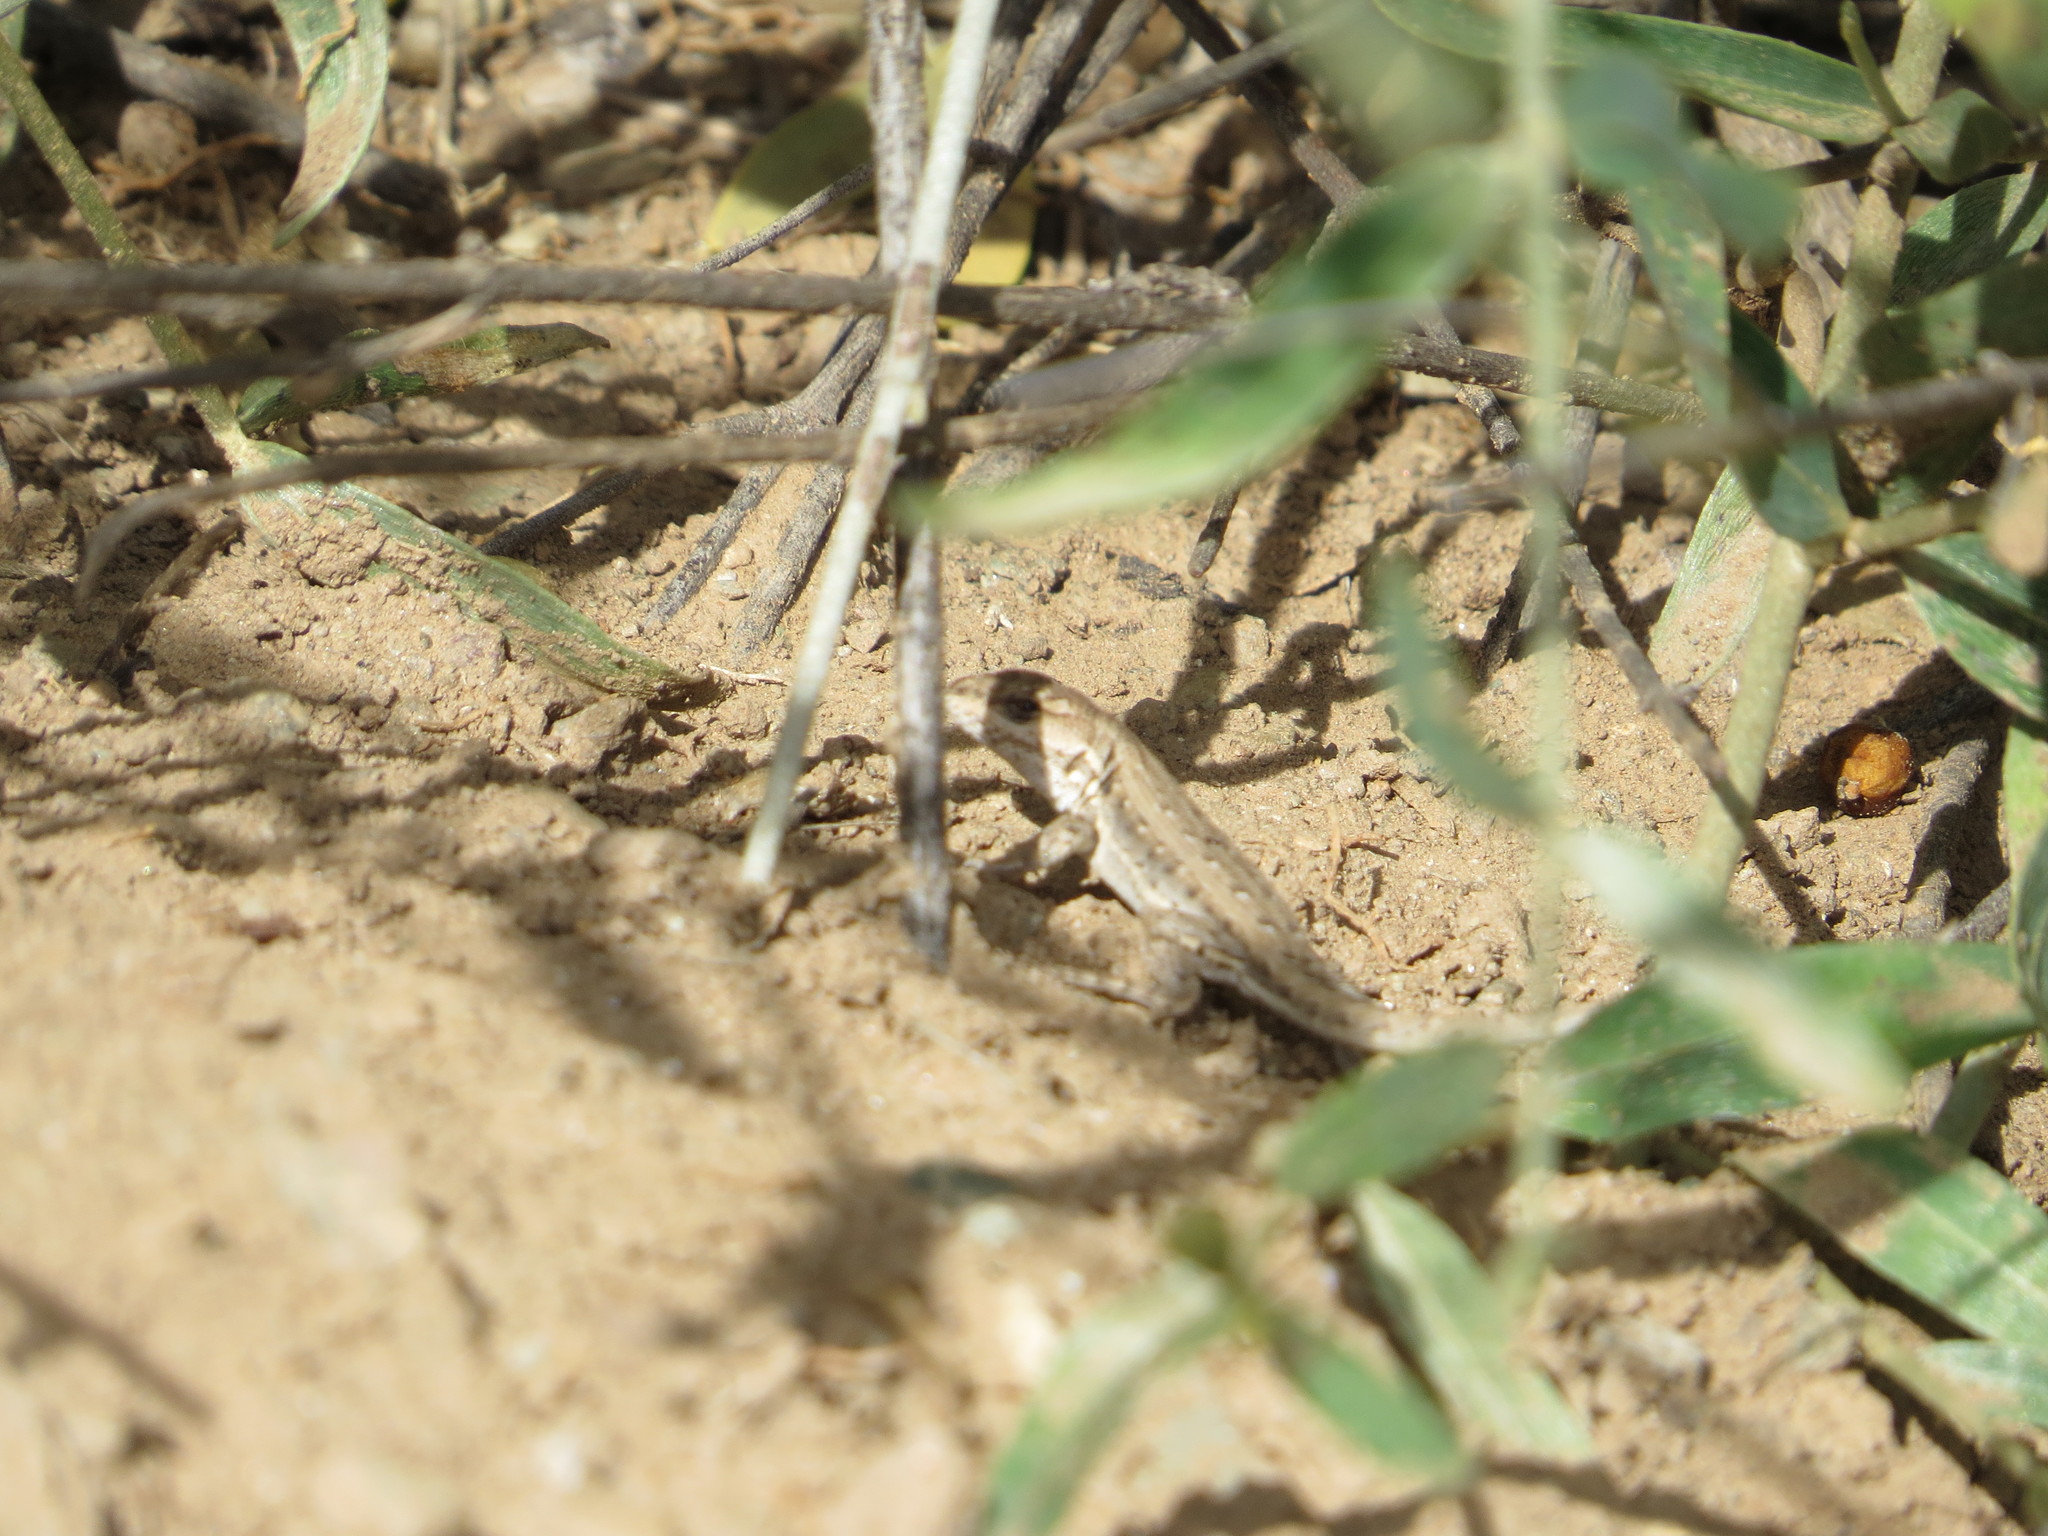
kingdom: Animalia
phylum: Chordata
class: Squamata
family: Liolaemidae
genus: Liolaemus
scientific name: Liolaemus chacoensis
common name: Chaco tree iguana
